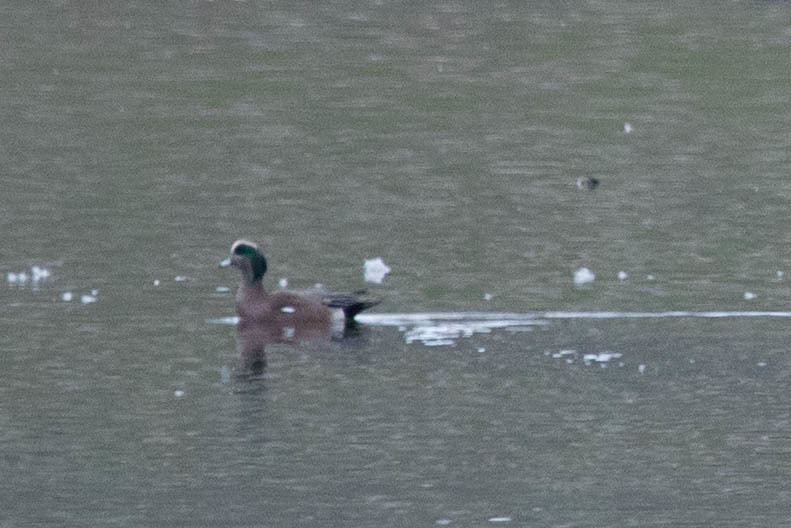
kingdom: Animalia
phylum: Chordata
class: Aves
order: Anseriformes
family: Anatidae
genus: Mareca
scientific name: Mareca americana
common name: American wigeon
